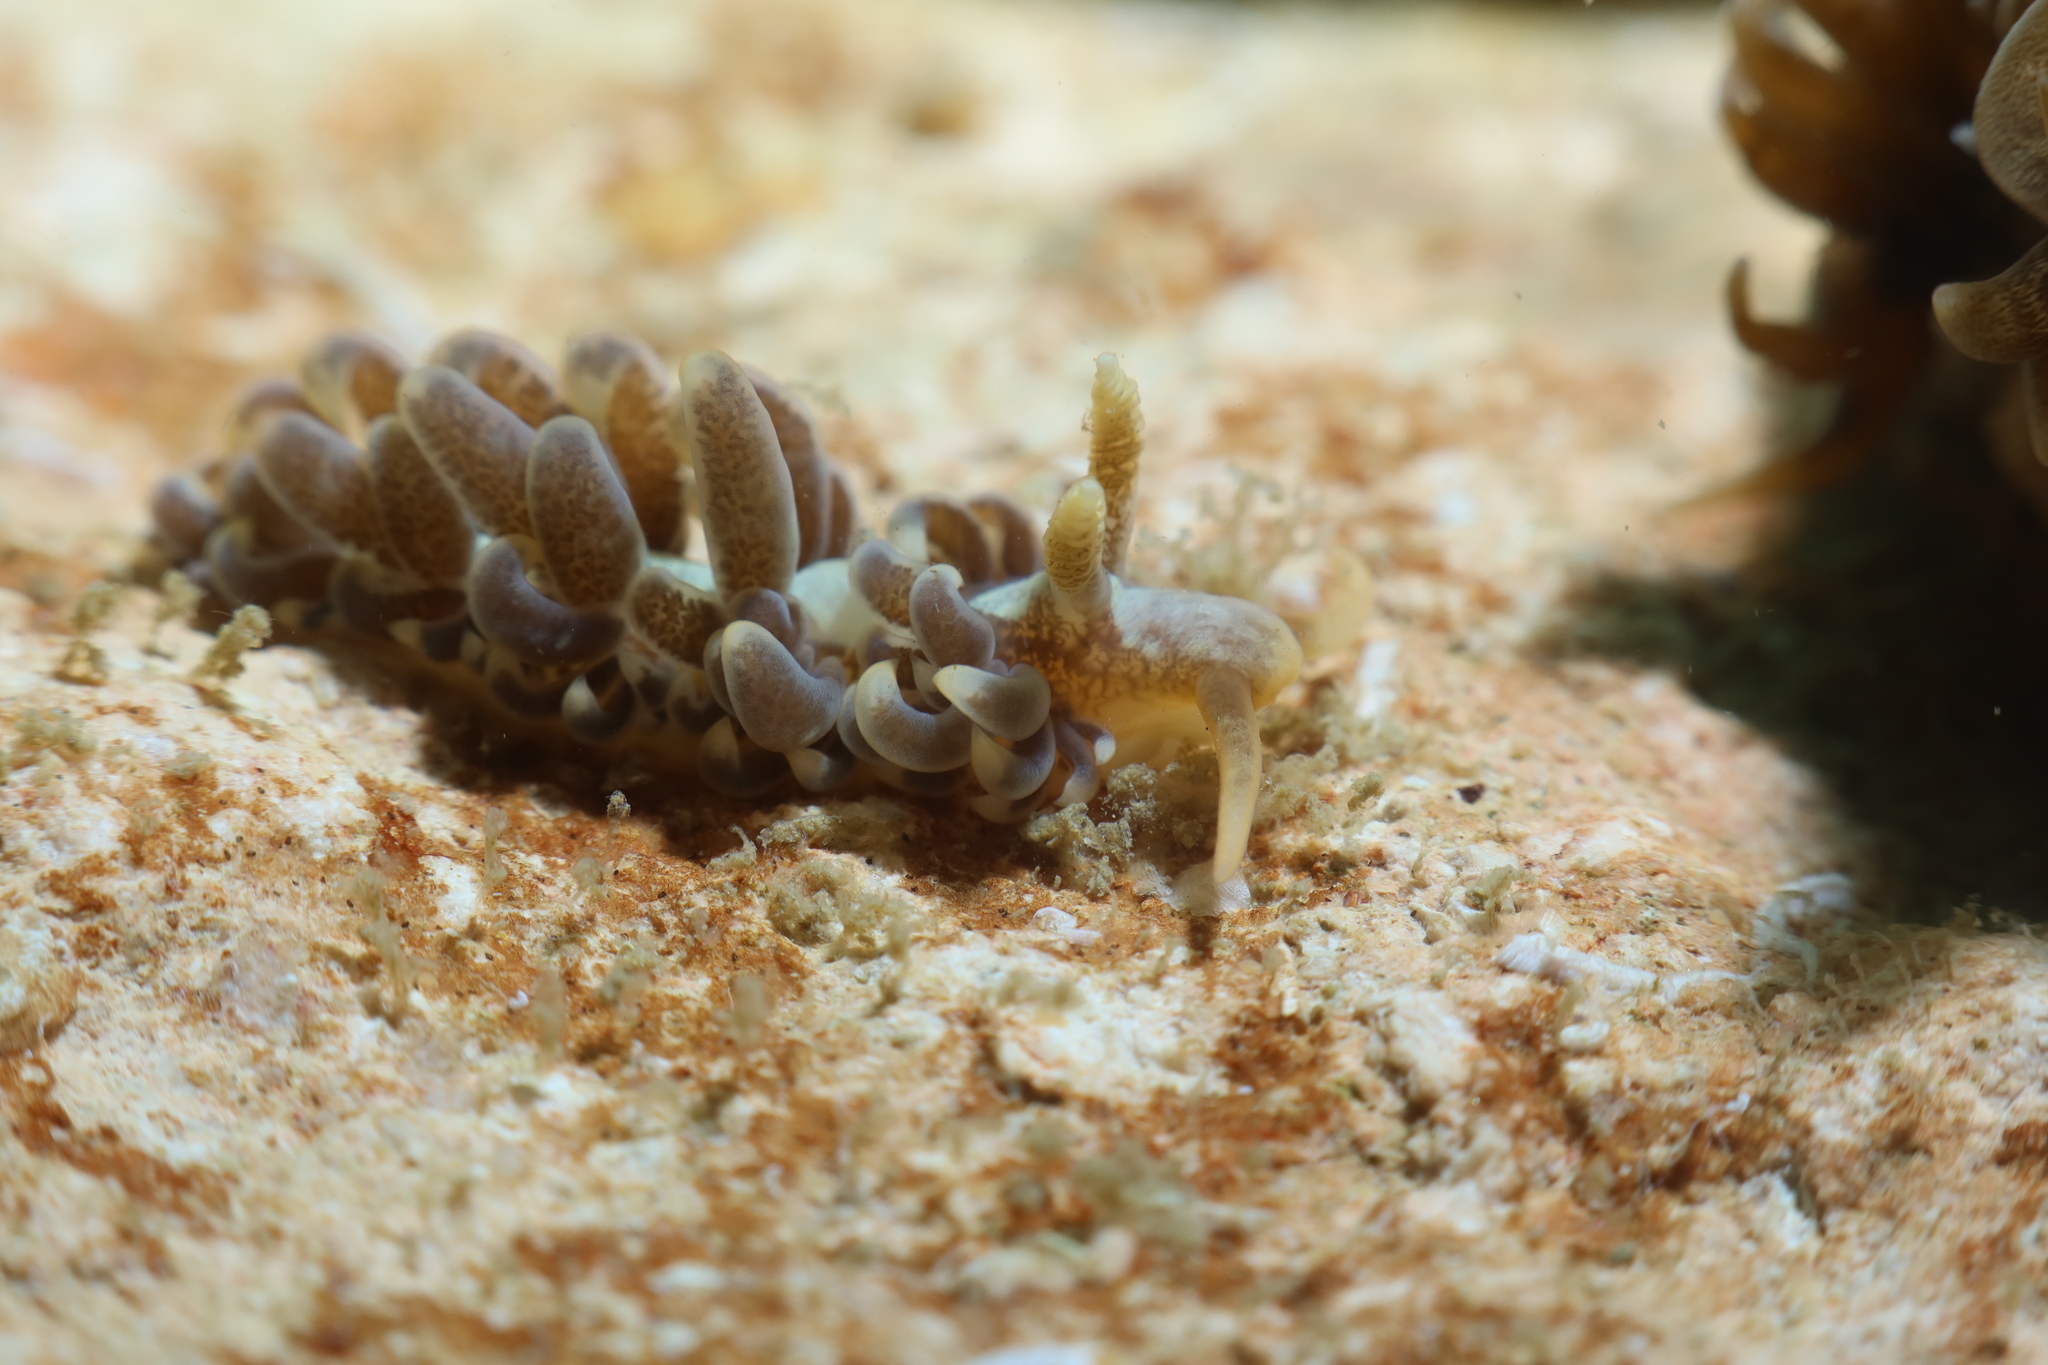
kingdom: Animalia
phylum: Mollusca
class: Gastropoda
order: Nudibranchia
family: Aeolidiidae
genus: Spurilla
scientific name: Spurilla neapolitana
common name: Naples spurilla
